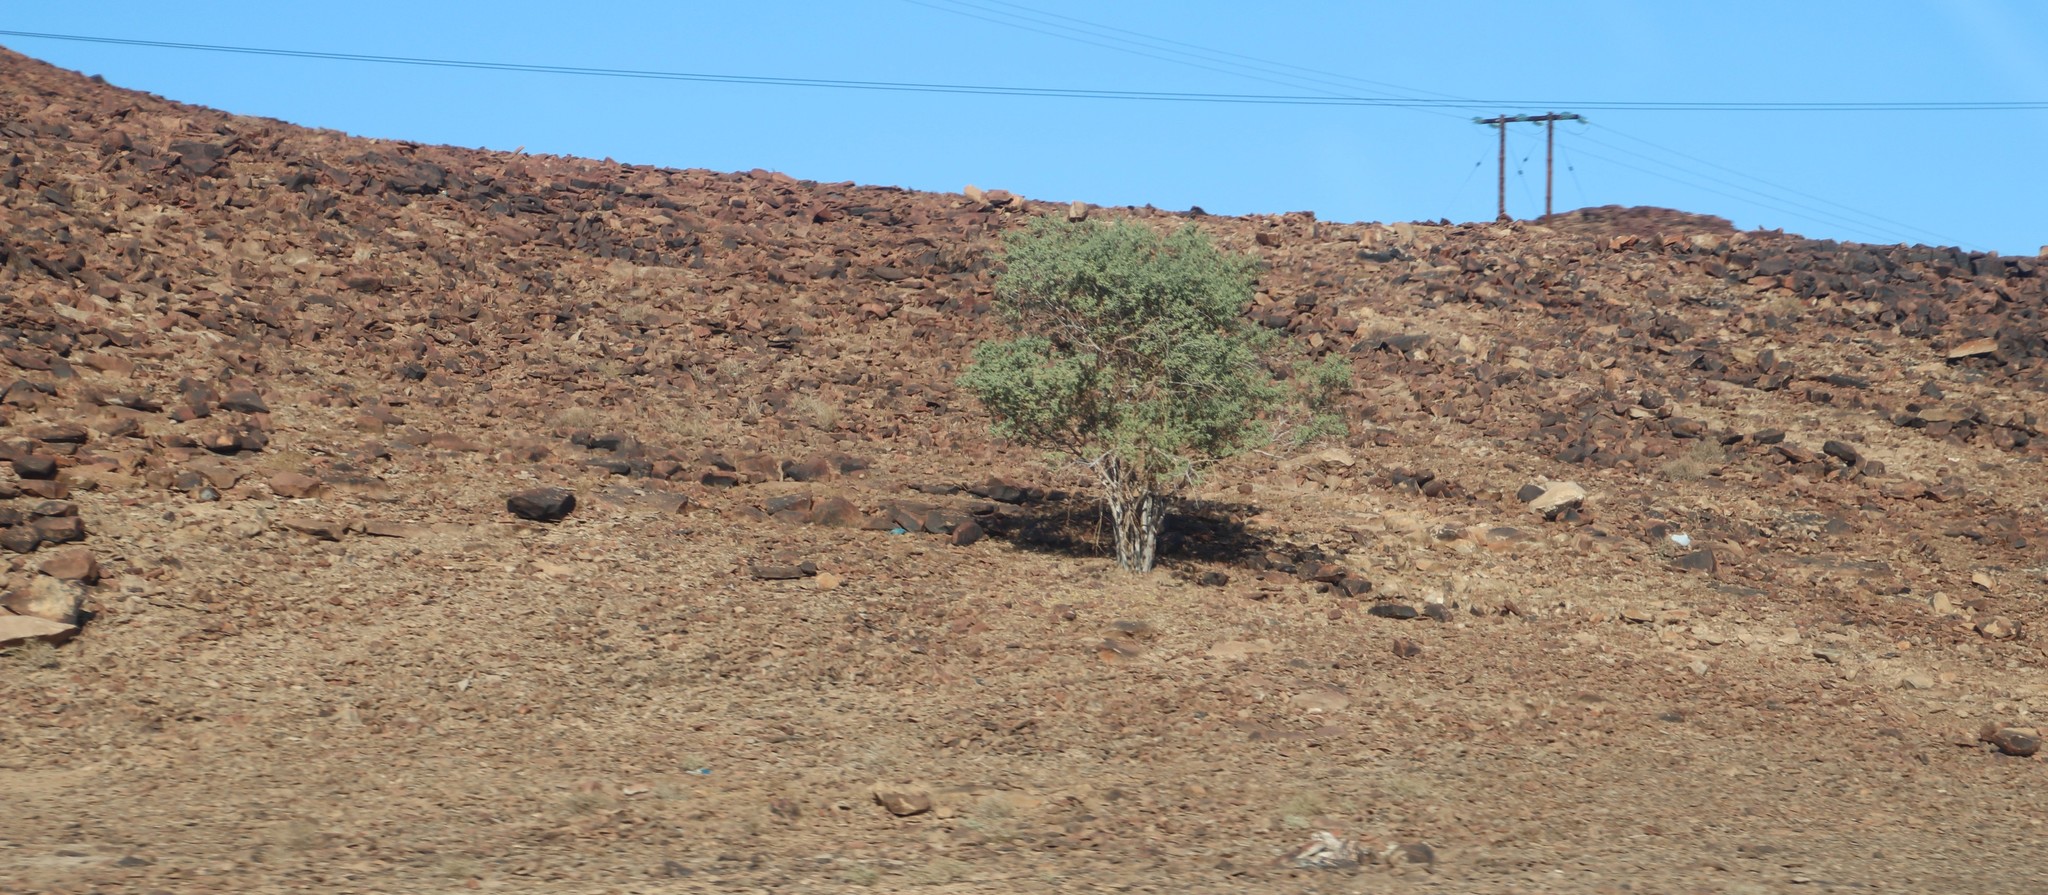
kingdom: Plantae
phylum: Tracheophyta
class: Magnoliopsida
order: Brassicales
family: Capparaceae
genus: Boscia
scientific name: Boscia albitrunca
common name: Caper bush
